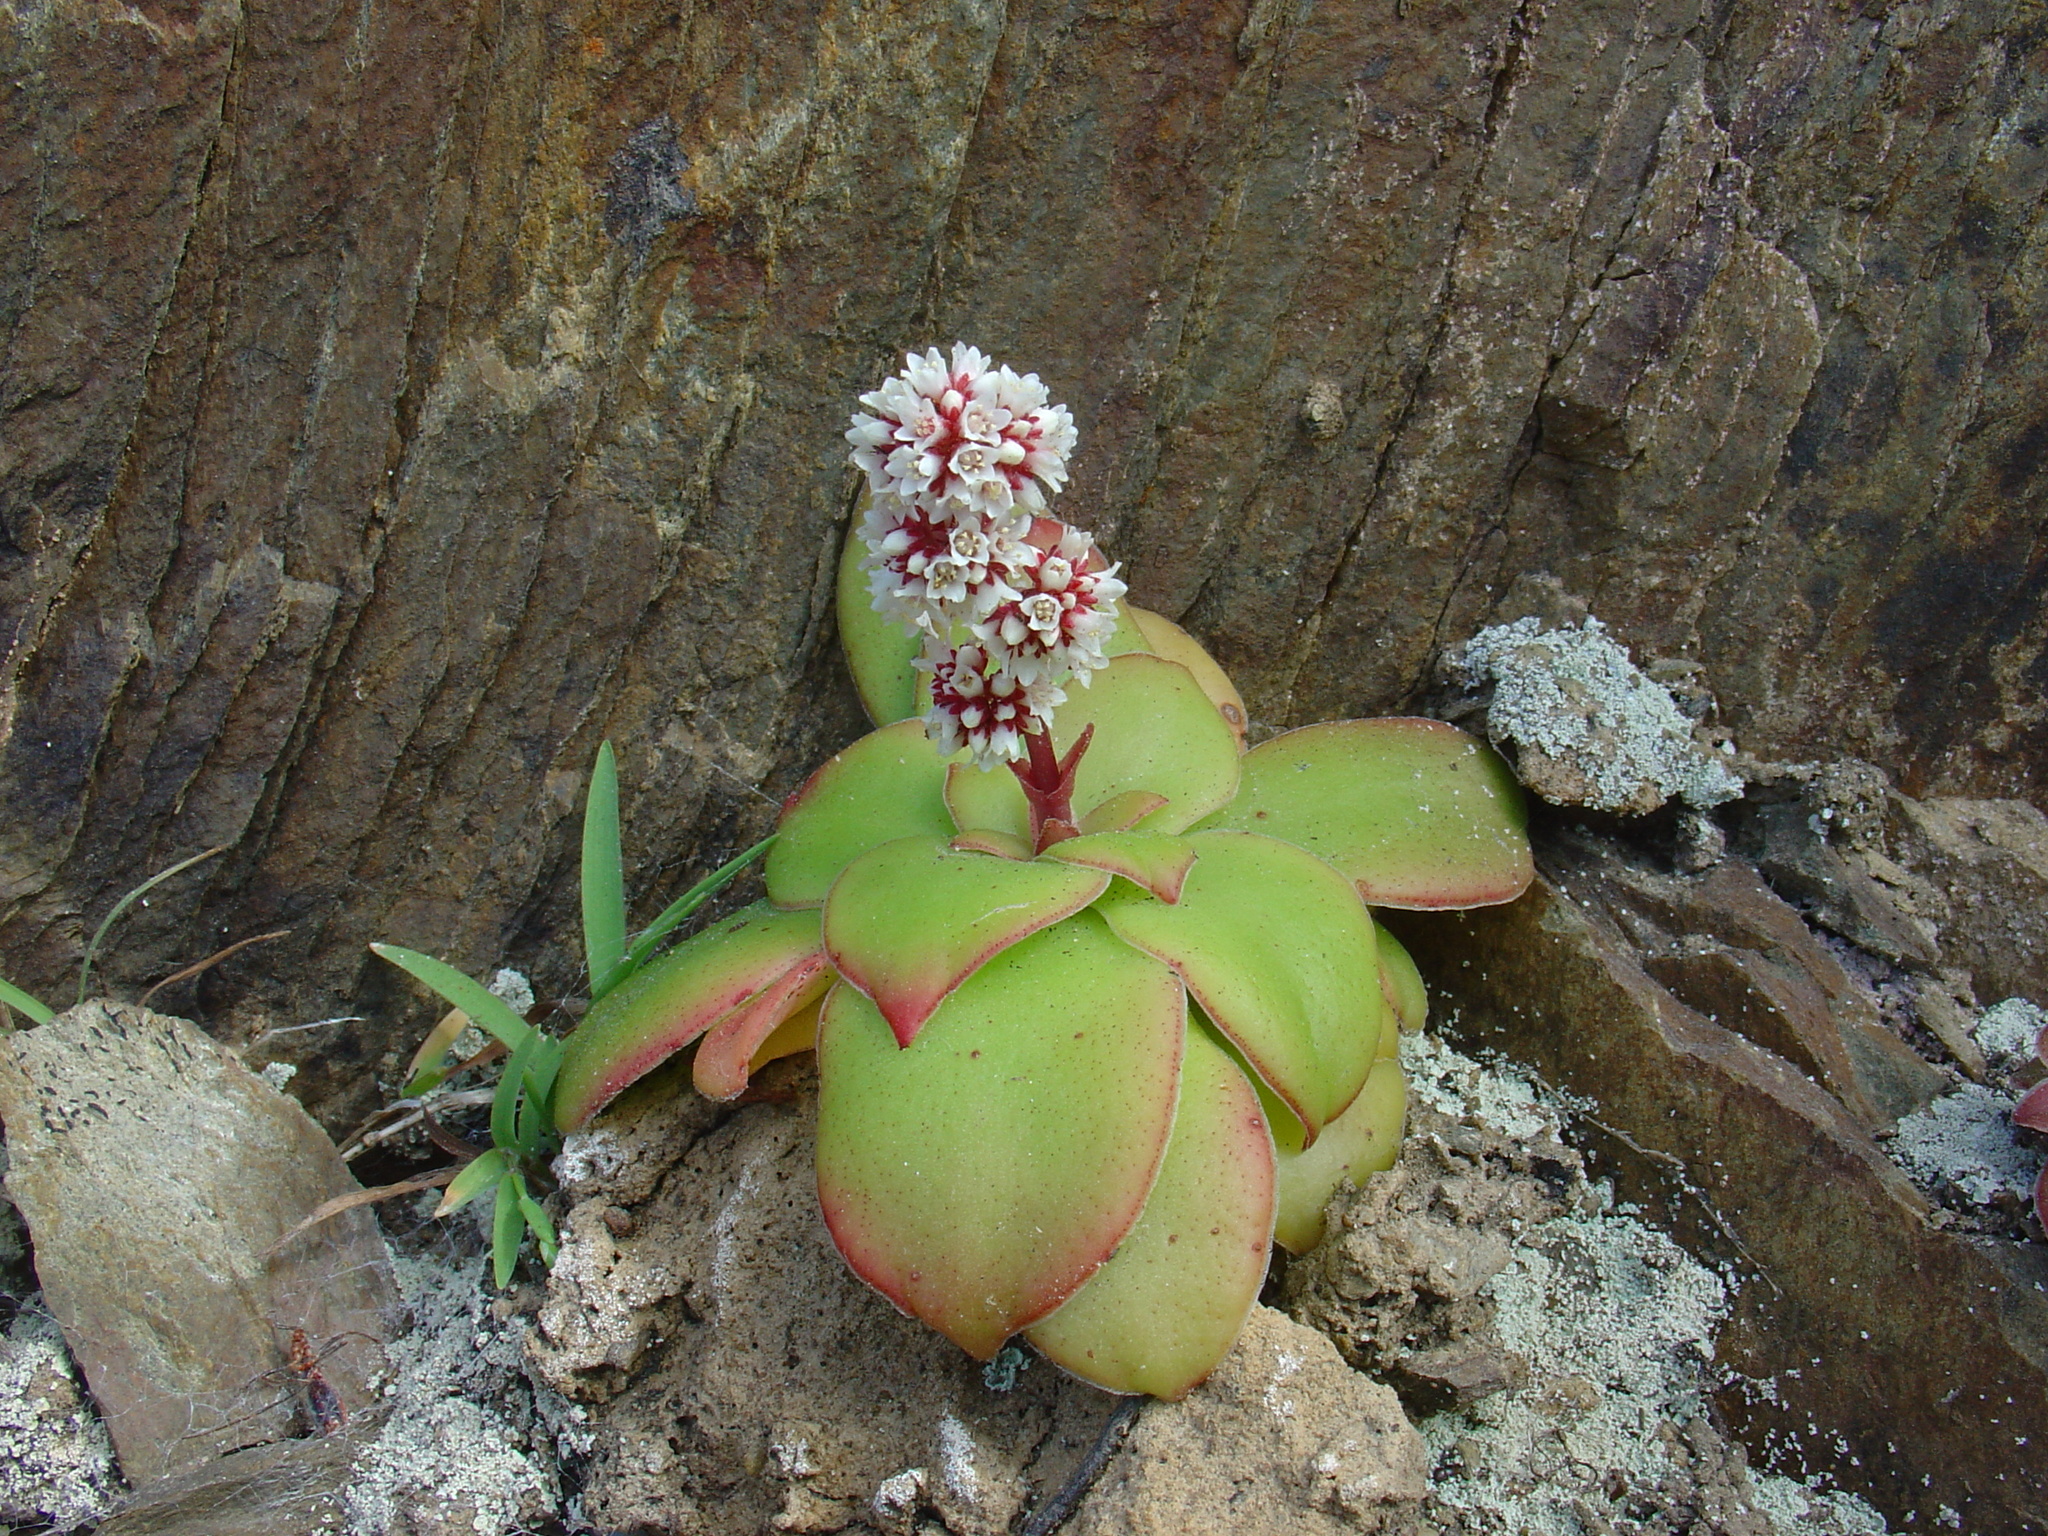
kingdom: Plantae
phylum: Tracheophyta
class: Magnoliopsida
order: Saxifragales
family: Crassulaceae
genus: Crassula
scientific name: Crassula orbicularis
